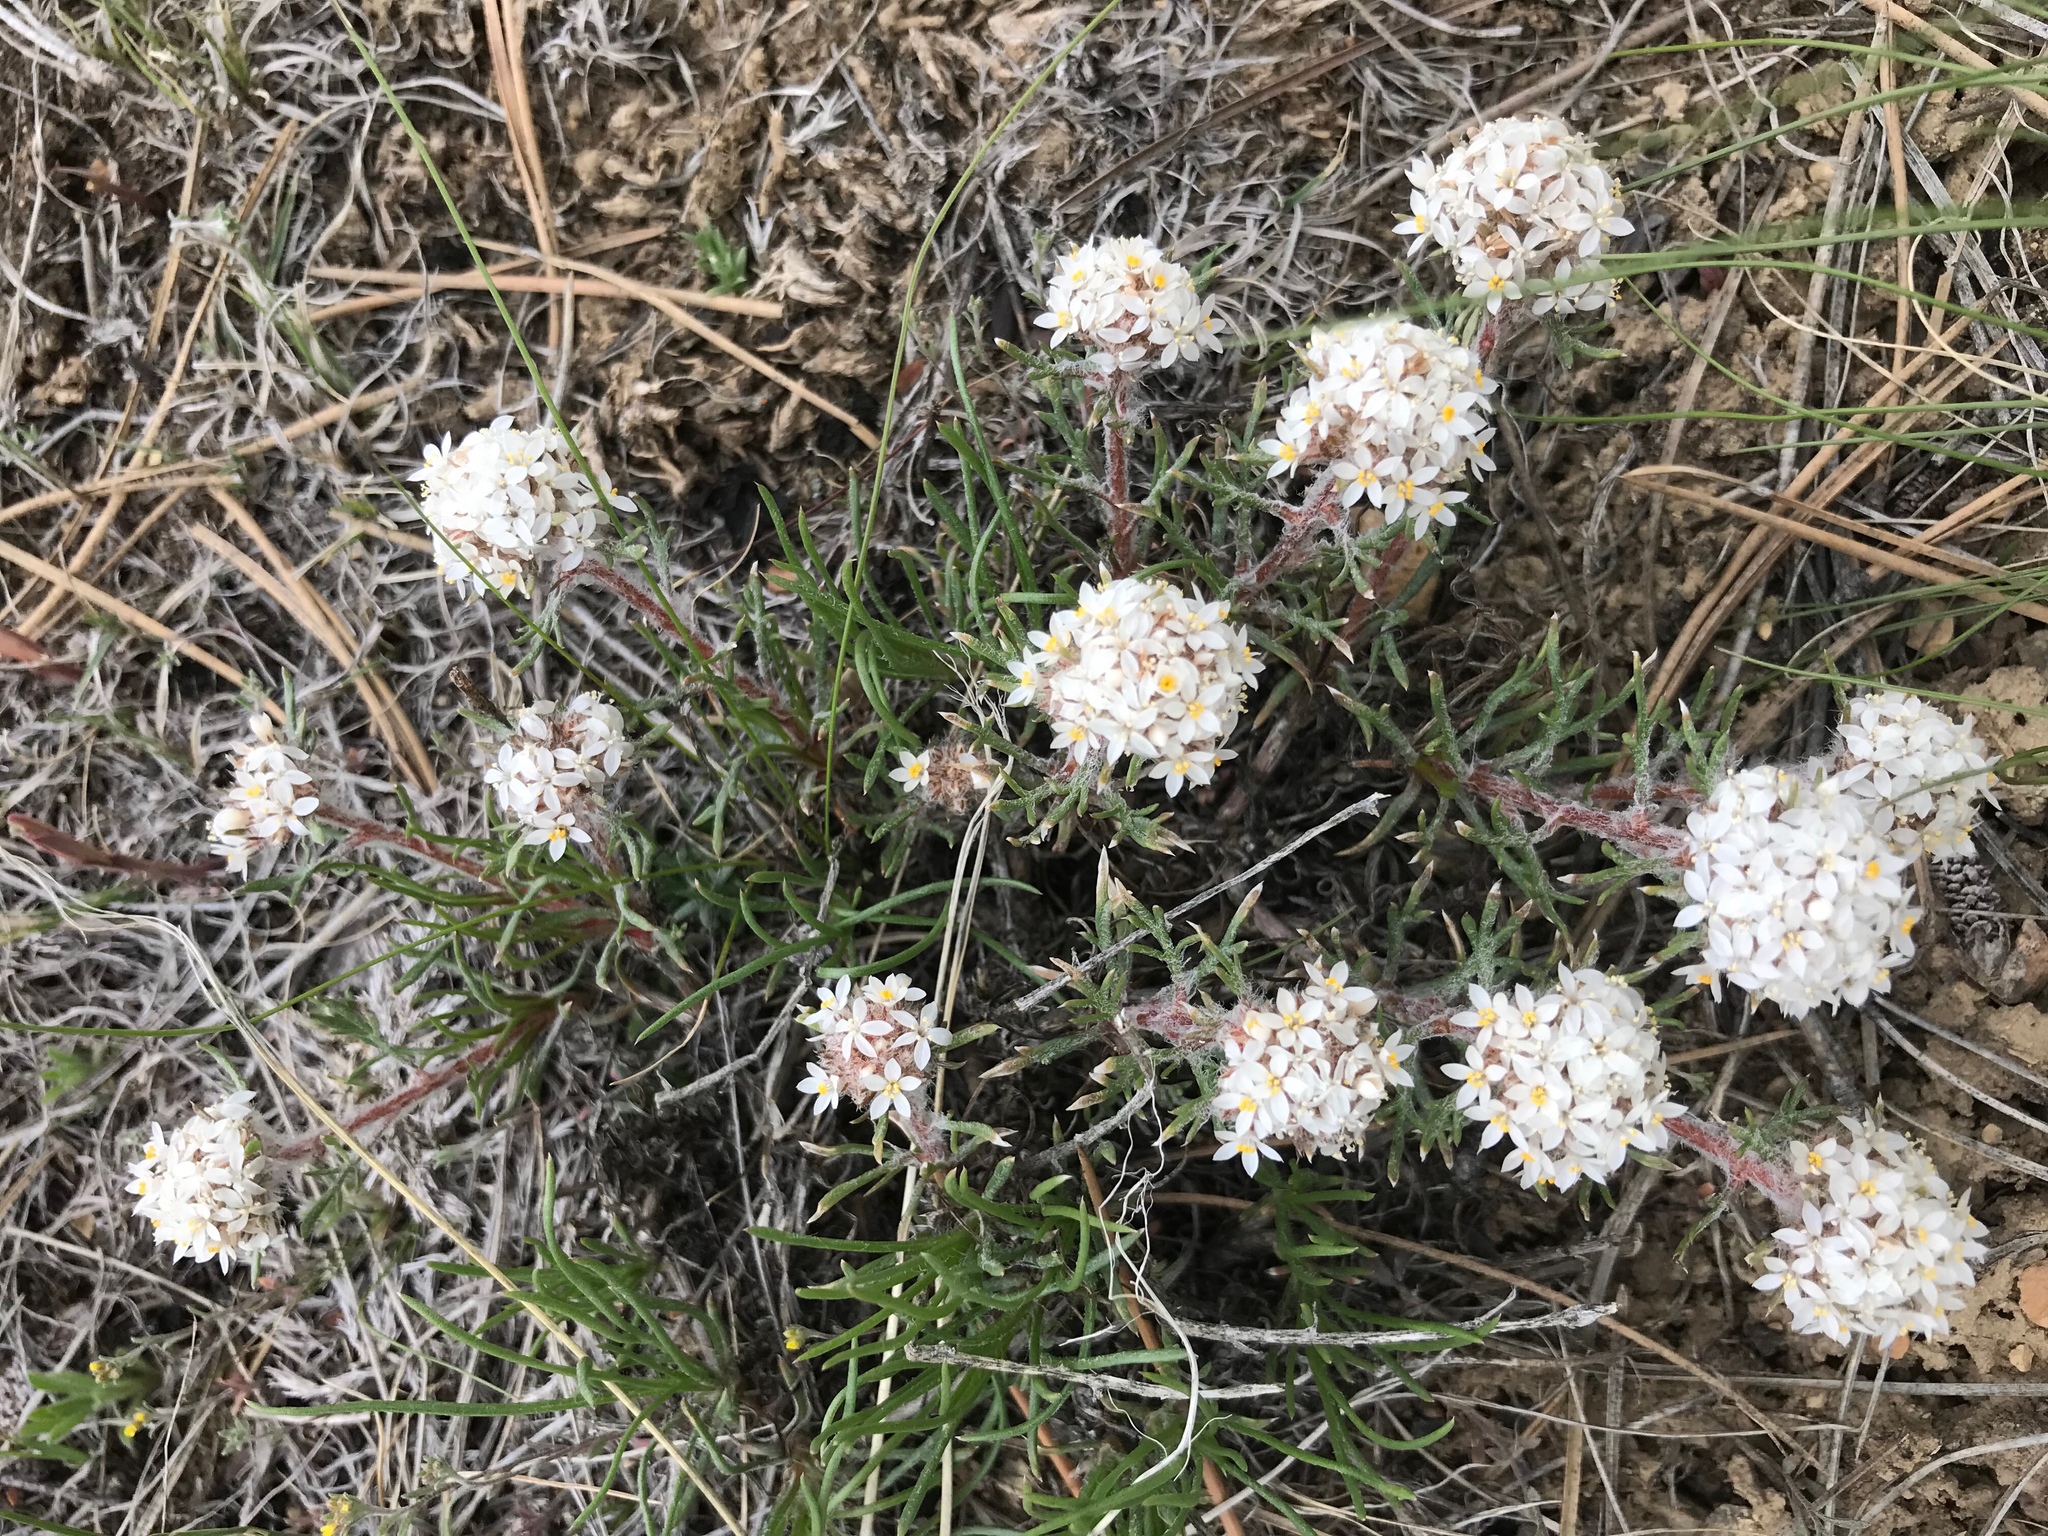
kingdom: Plantae
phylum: Tracheophyta
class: Magnoliopsida
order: Ericales
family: Polemoniaceae
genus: Ipomopsis
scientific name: Ipomopsis congesta
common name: Ball-head gilia
